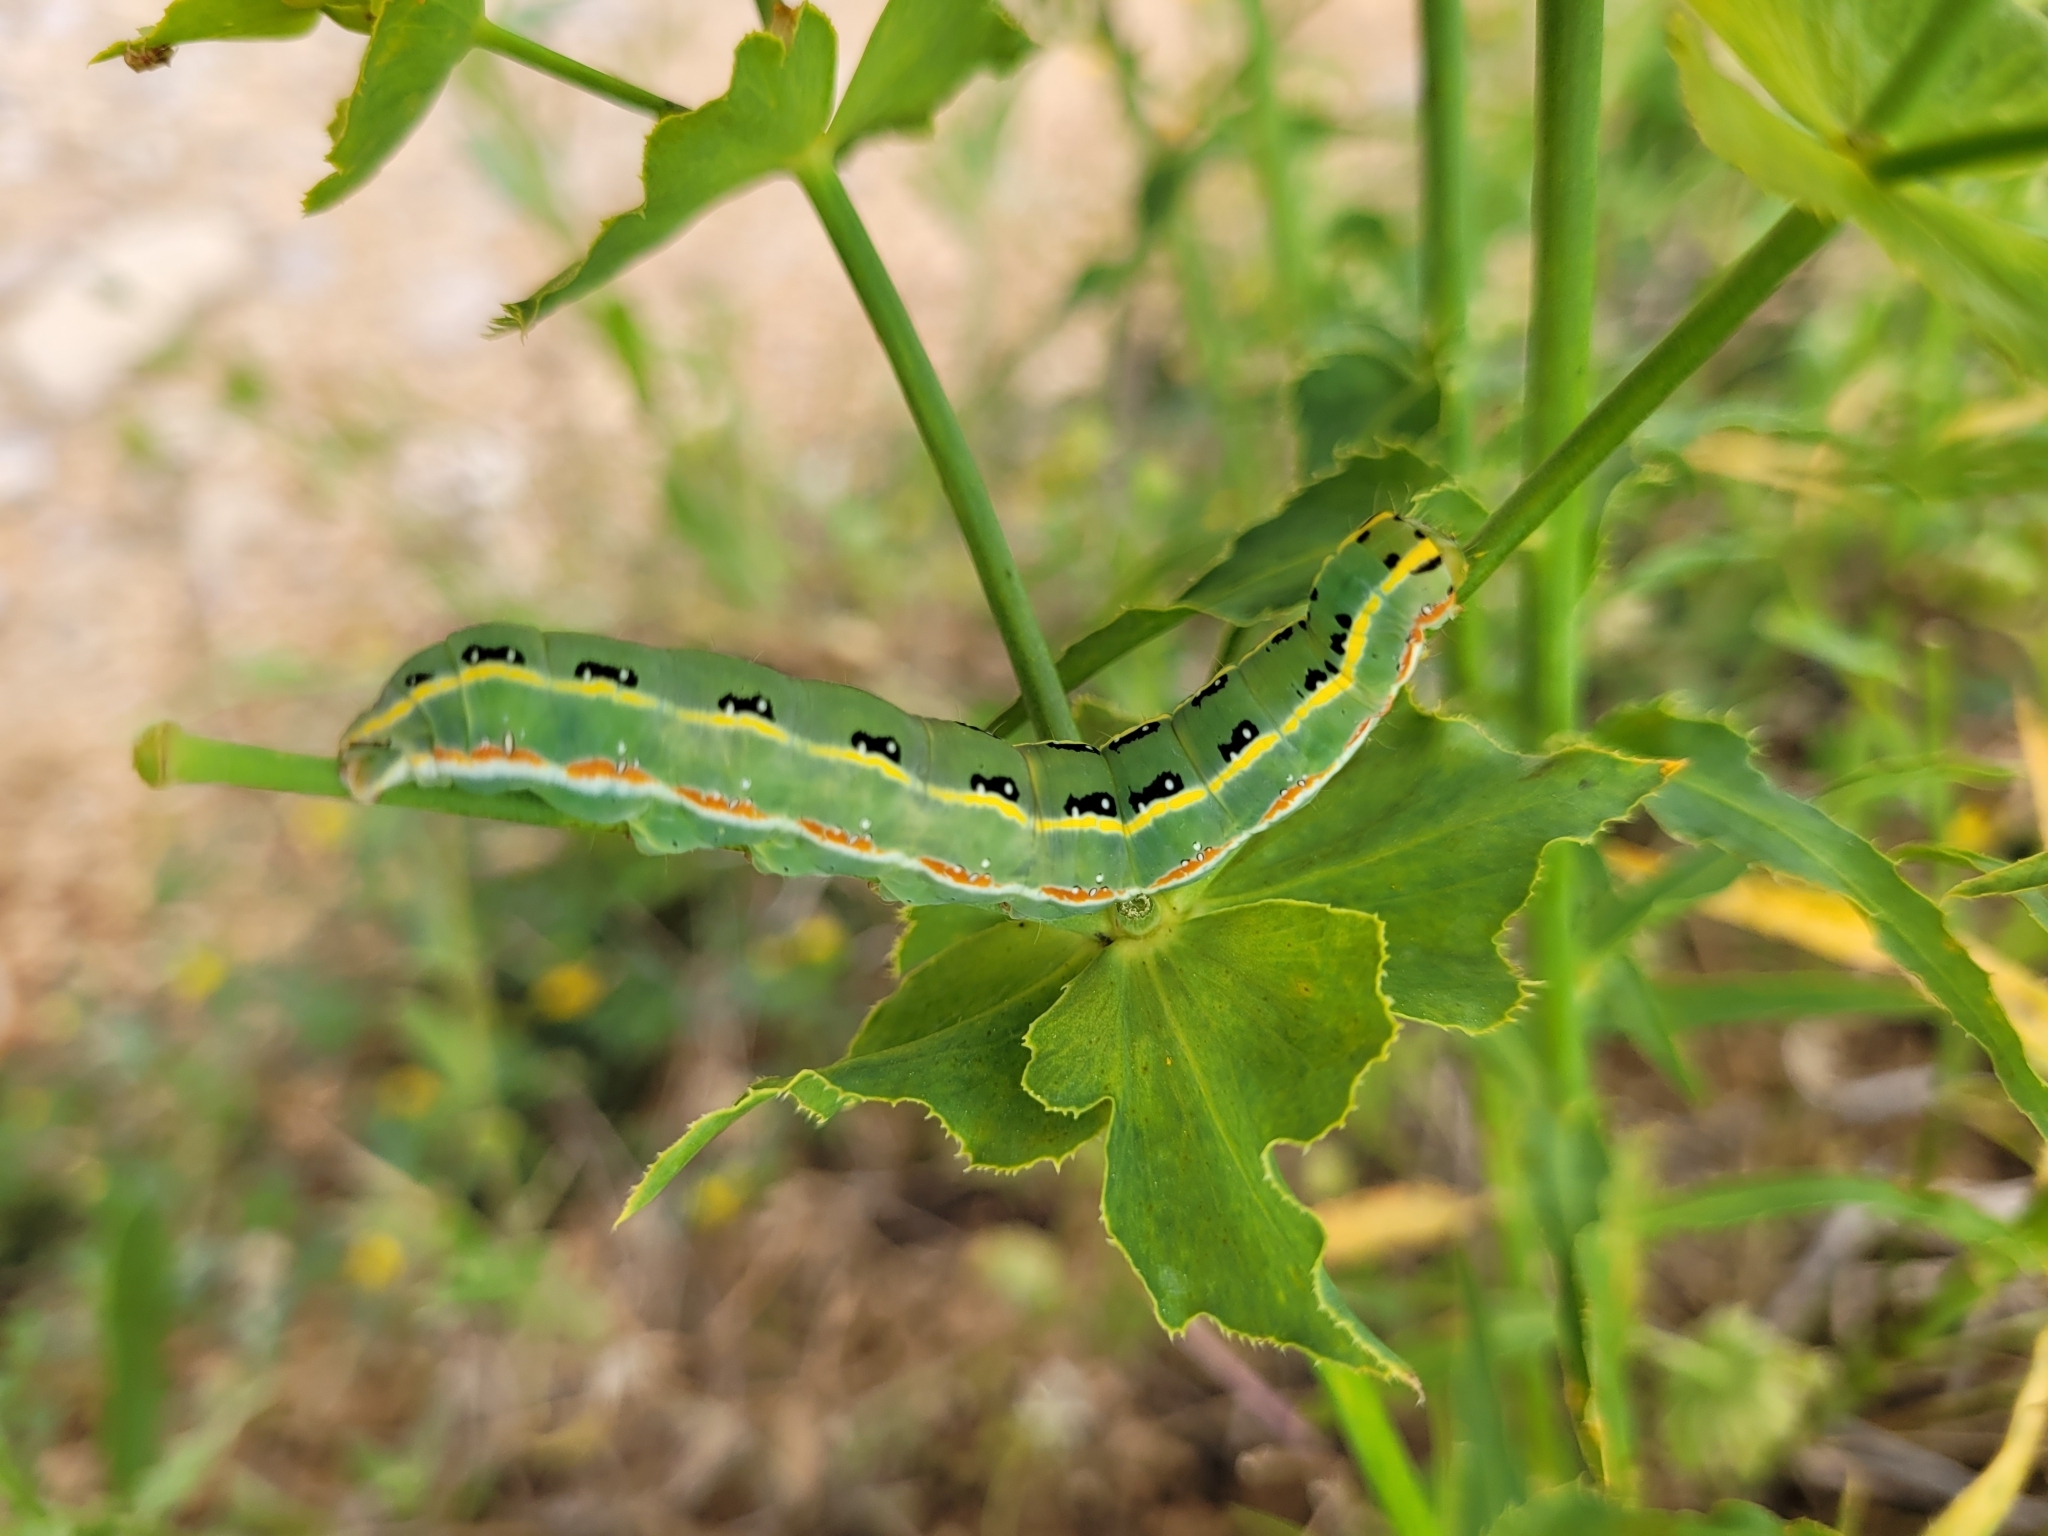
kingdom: Animalia
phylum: Arthropoda
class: Insecta
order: Lepidoptera
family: Noctuidae
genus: Xylena
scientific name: Xylena exsoleta
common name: Sword-grass
